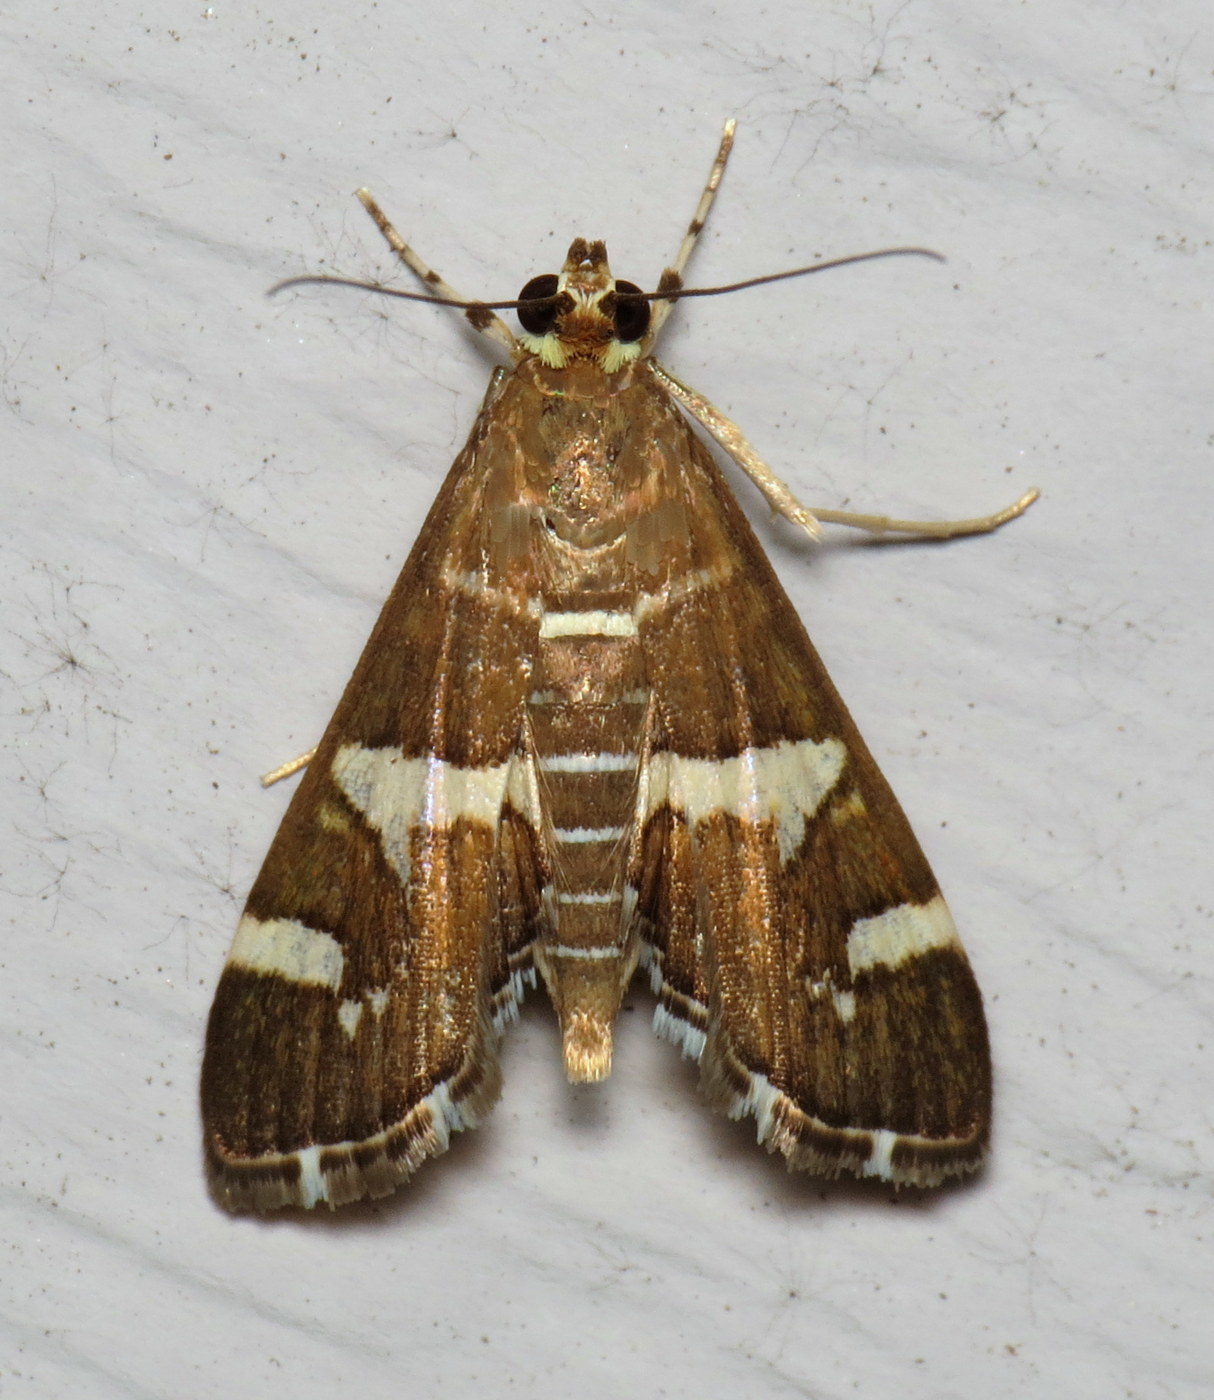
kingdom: Animalia
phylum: Arthropoda
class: Insecta
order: Lepidoptera
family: Crambidae
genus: Spoladea
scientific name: Spoladea recurvalis
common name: Beet webworm moth
